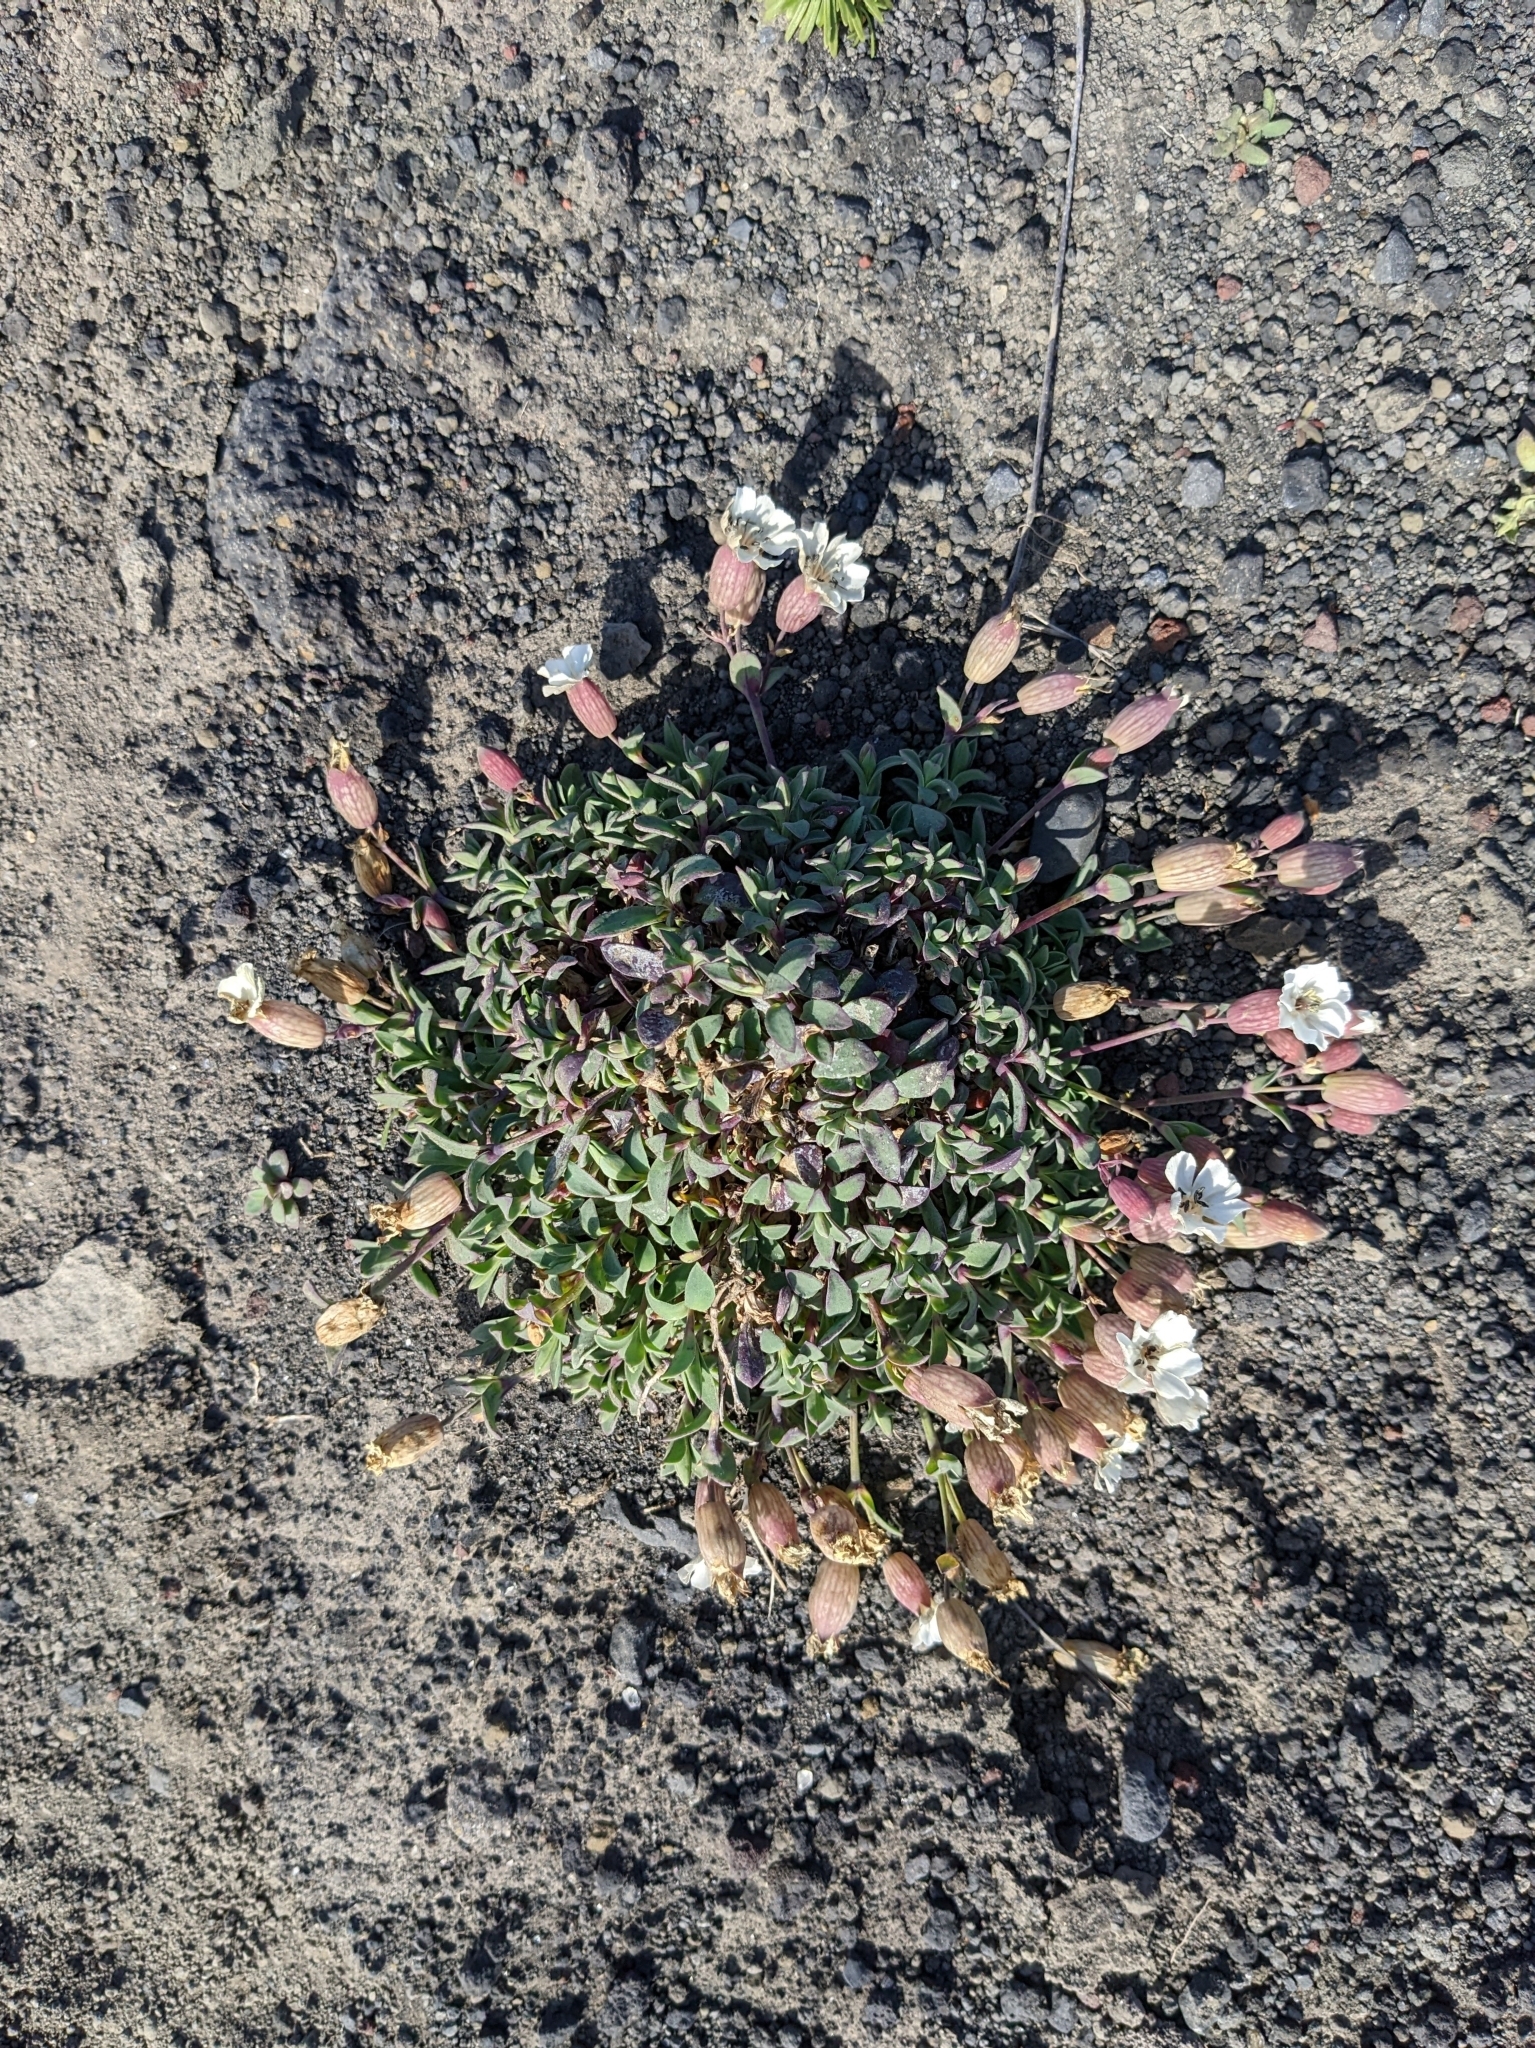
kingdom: Plantae
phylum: Tracheophyta
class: Magnoliopsida
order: Caryophyllales
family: Caryophyllaceae
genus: Silene
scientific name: Silene uniflora
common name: Sea campion
